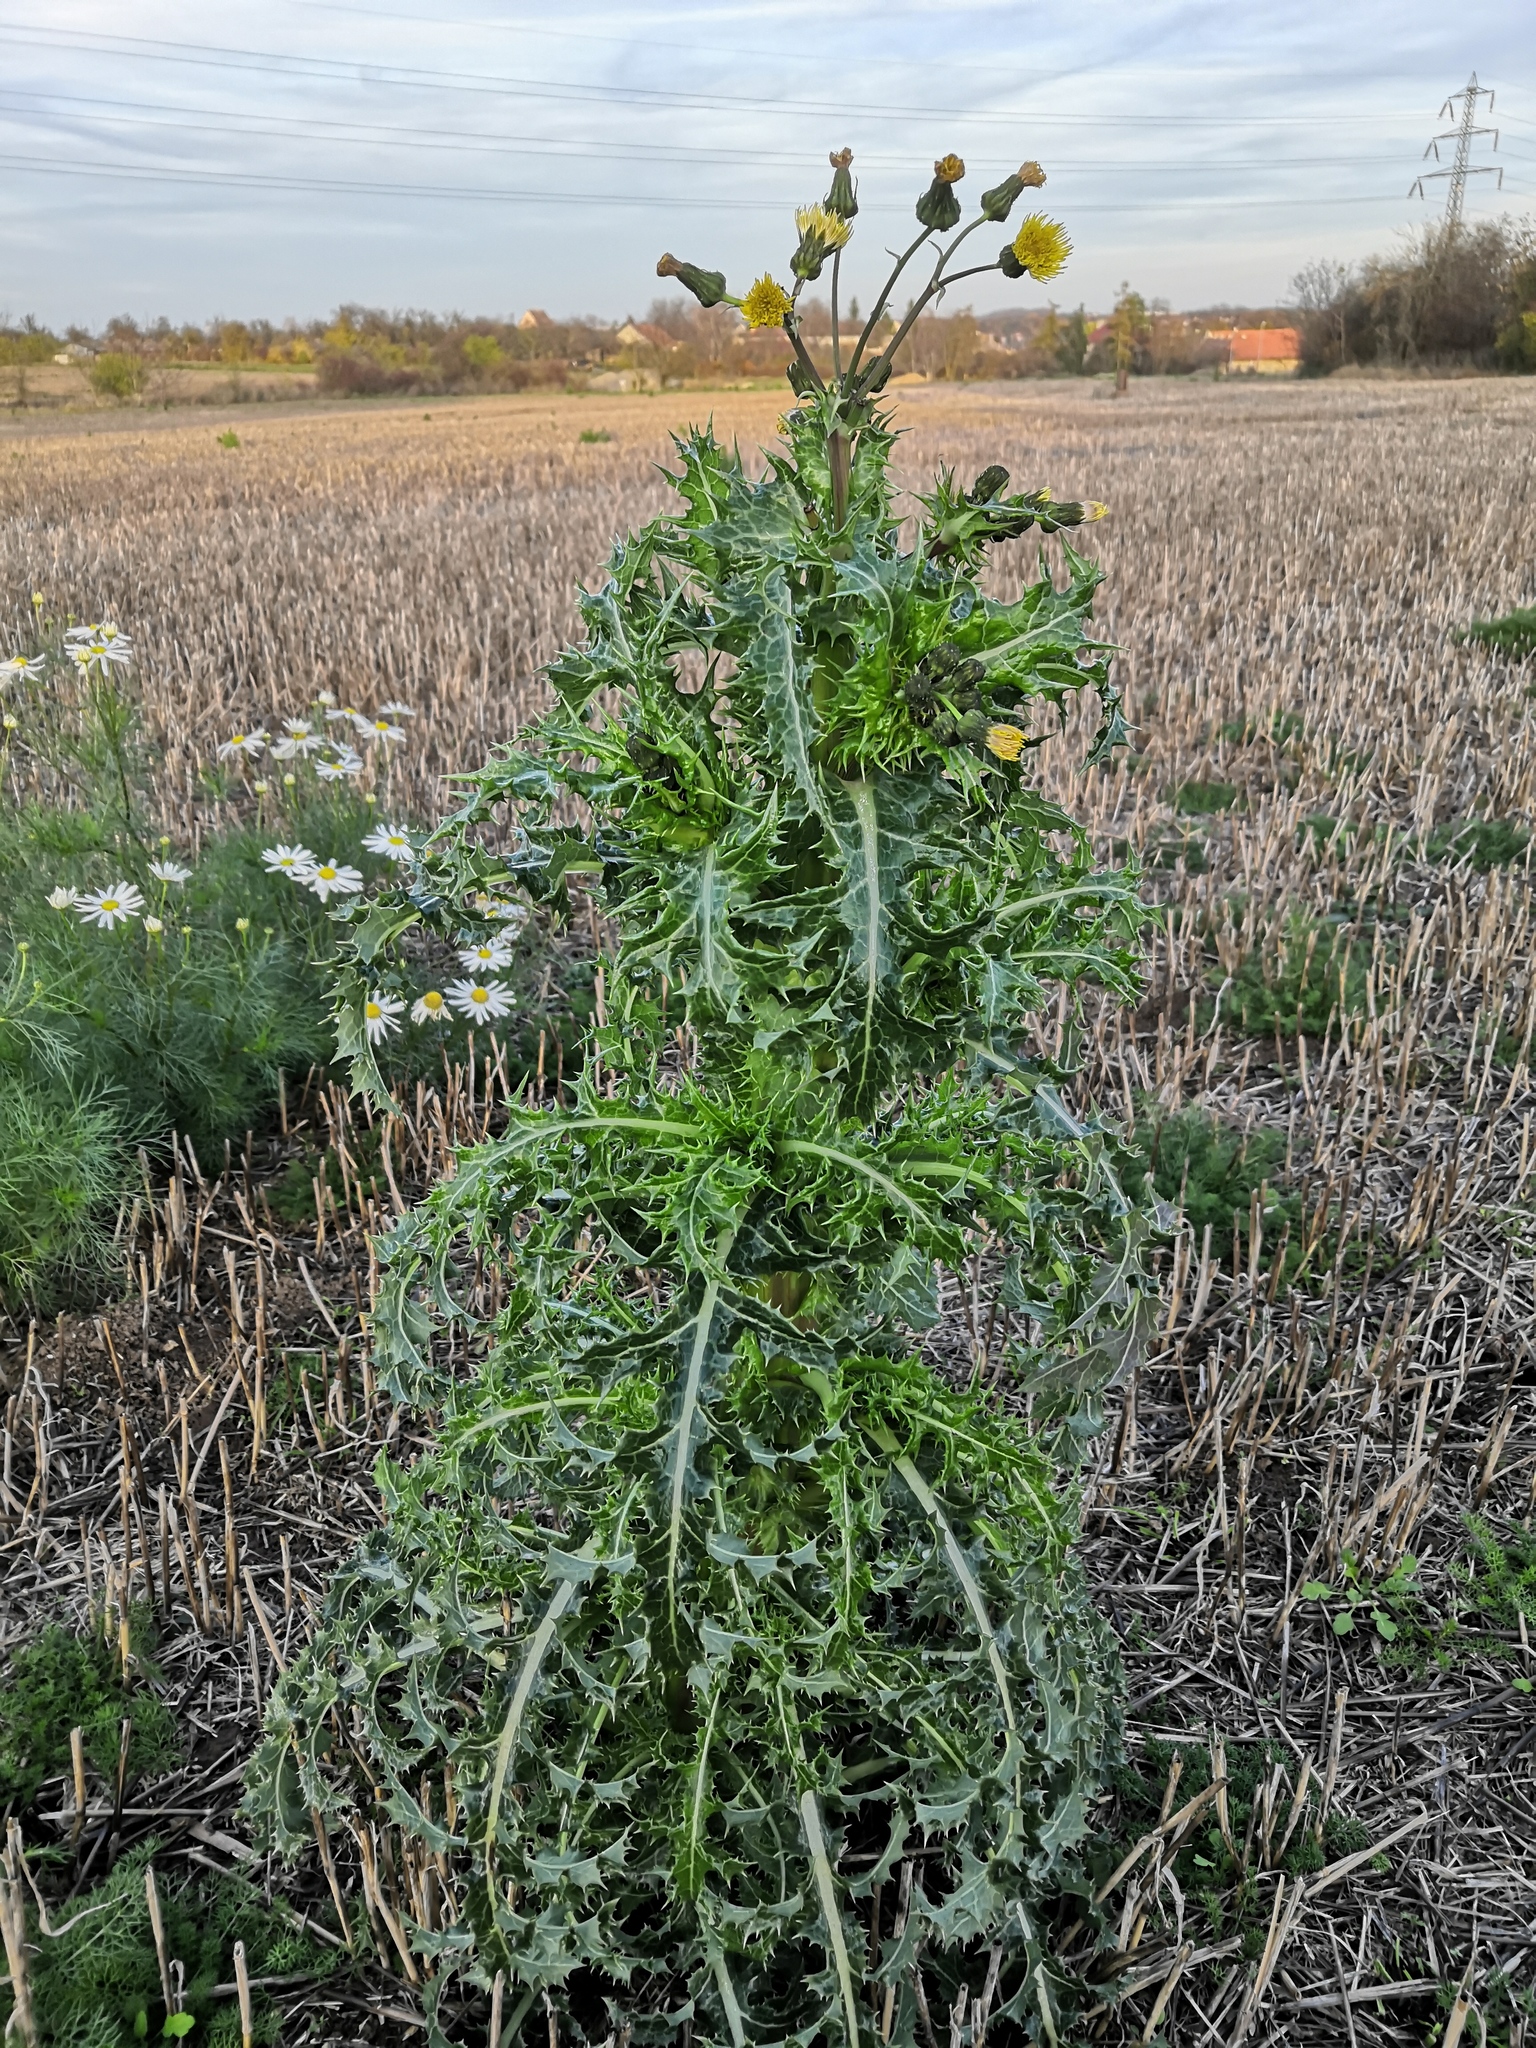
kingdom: Plantae
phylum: Tracheophyta
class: Magnoliopsida
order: Asterales
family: Asteraceae
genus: Sonchus
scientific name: Sonchus asper
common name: Prickly sow-thistle
